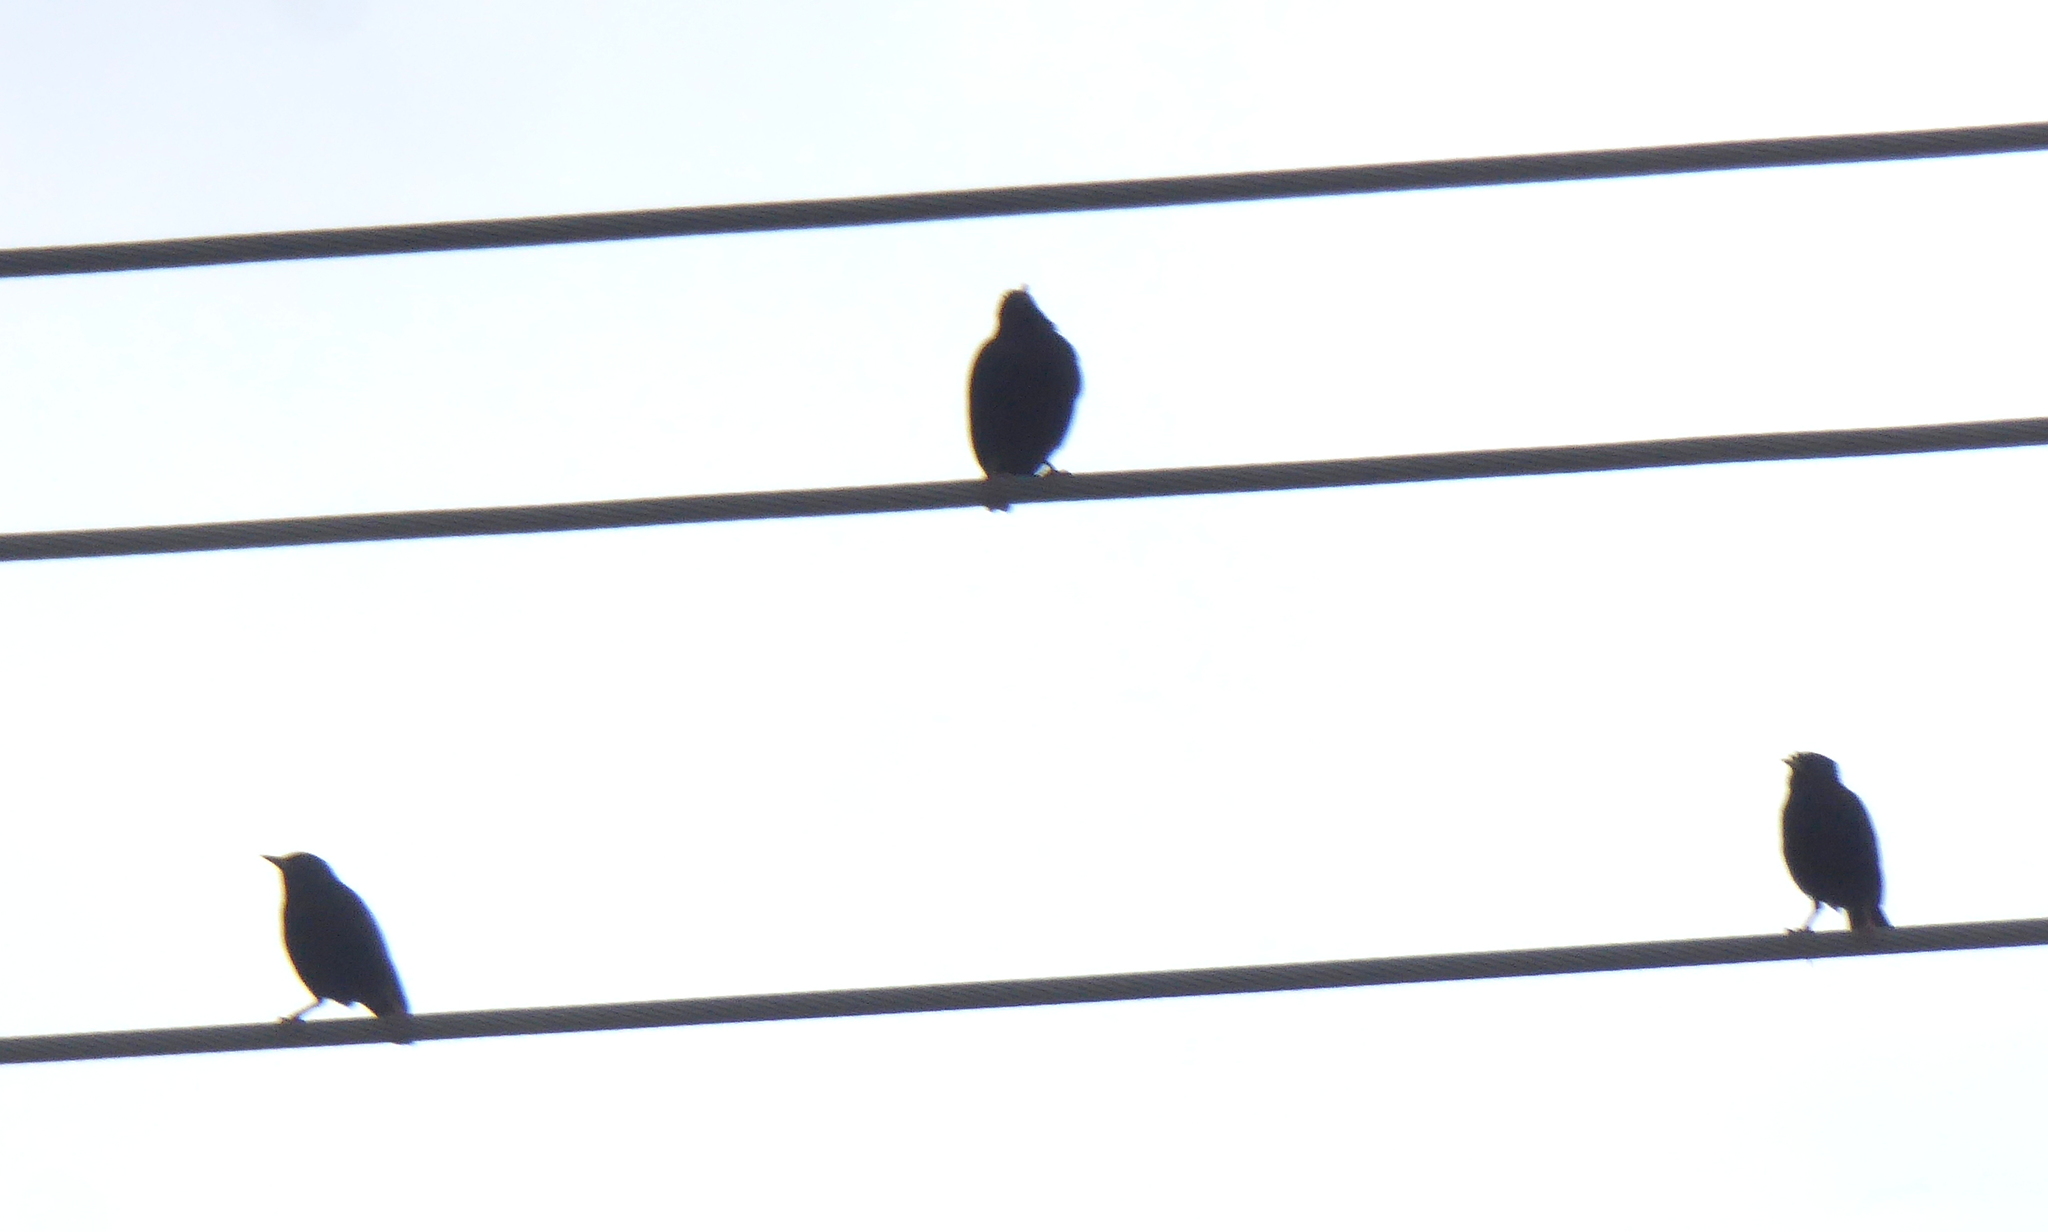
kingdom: Animalia
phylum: Chordata
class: Aves
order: Passeriformes
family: Sturnidae
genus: Sturnus
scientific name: Sturnus vulgaris
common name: Common starling
